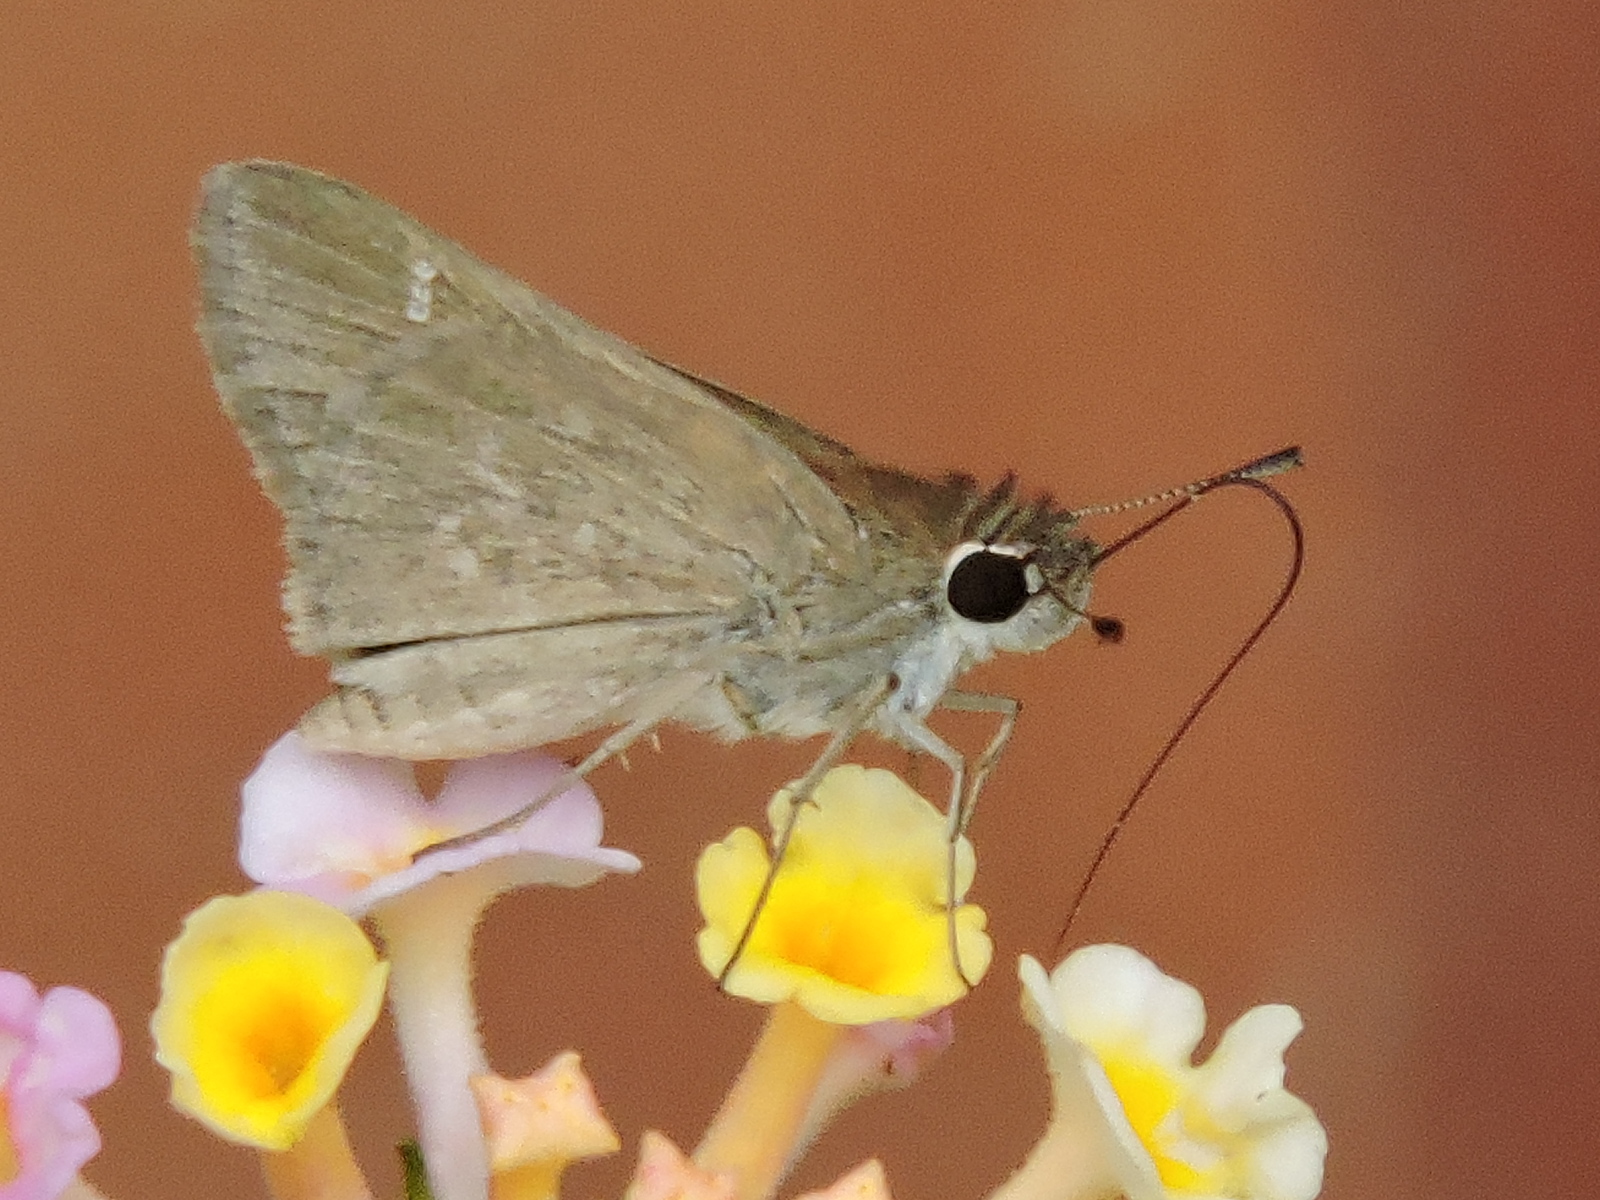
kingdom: Animalia
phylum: Arthropoda
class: Insecta
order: Lepidoptera
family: Hesperiidae
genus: Lerodea
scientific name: Lerodea eufala
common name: Eufala skipper
